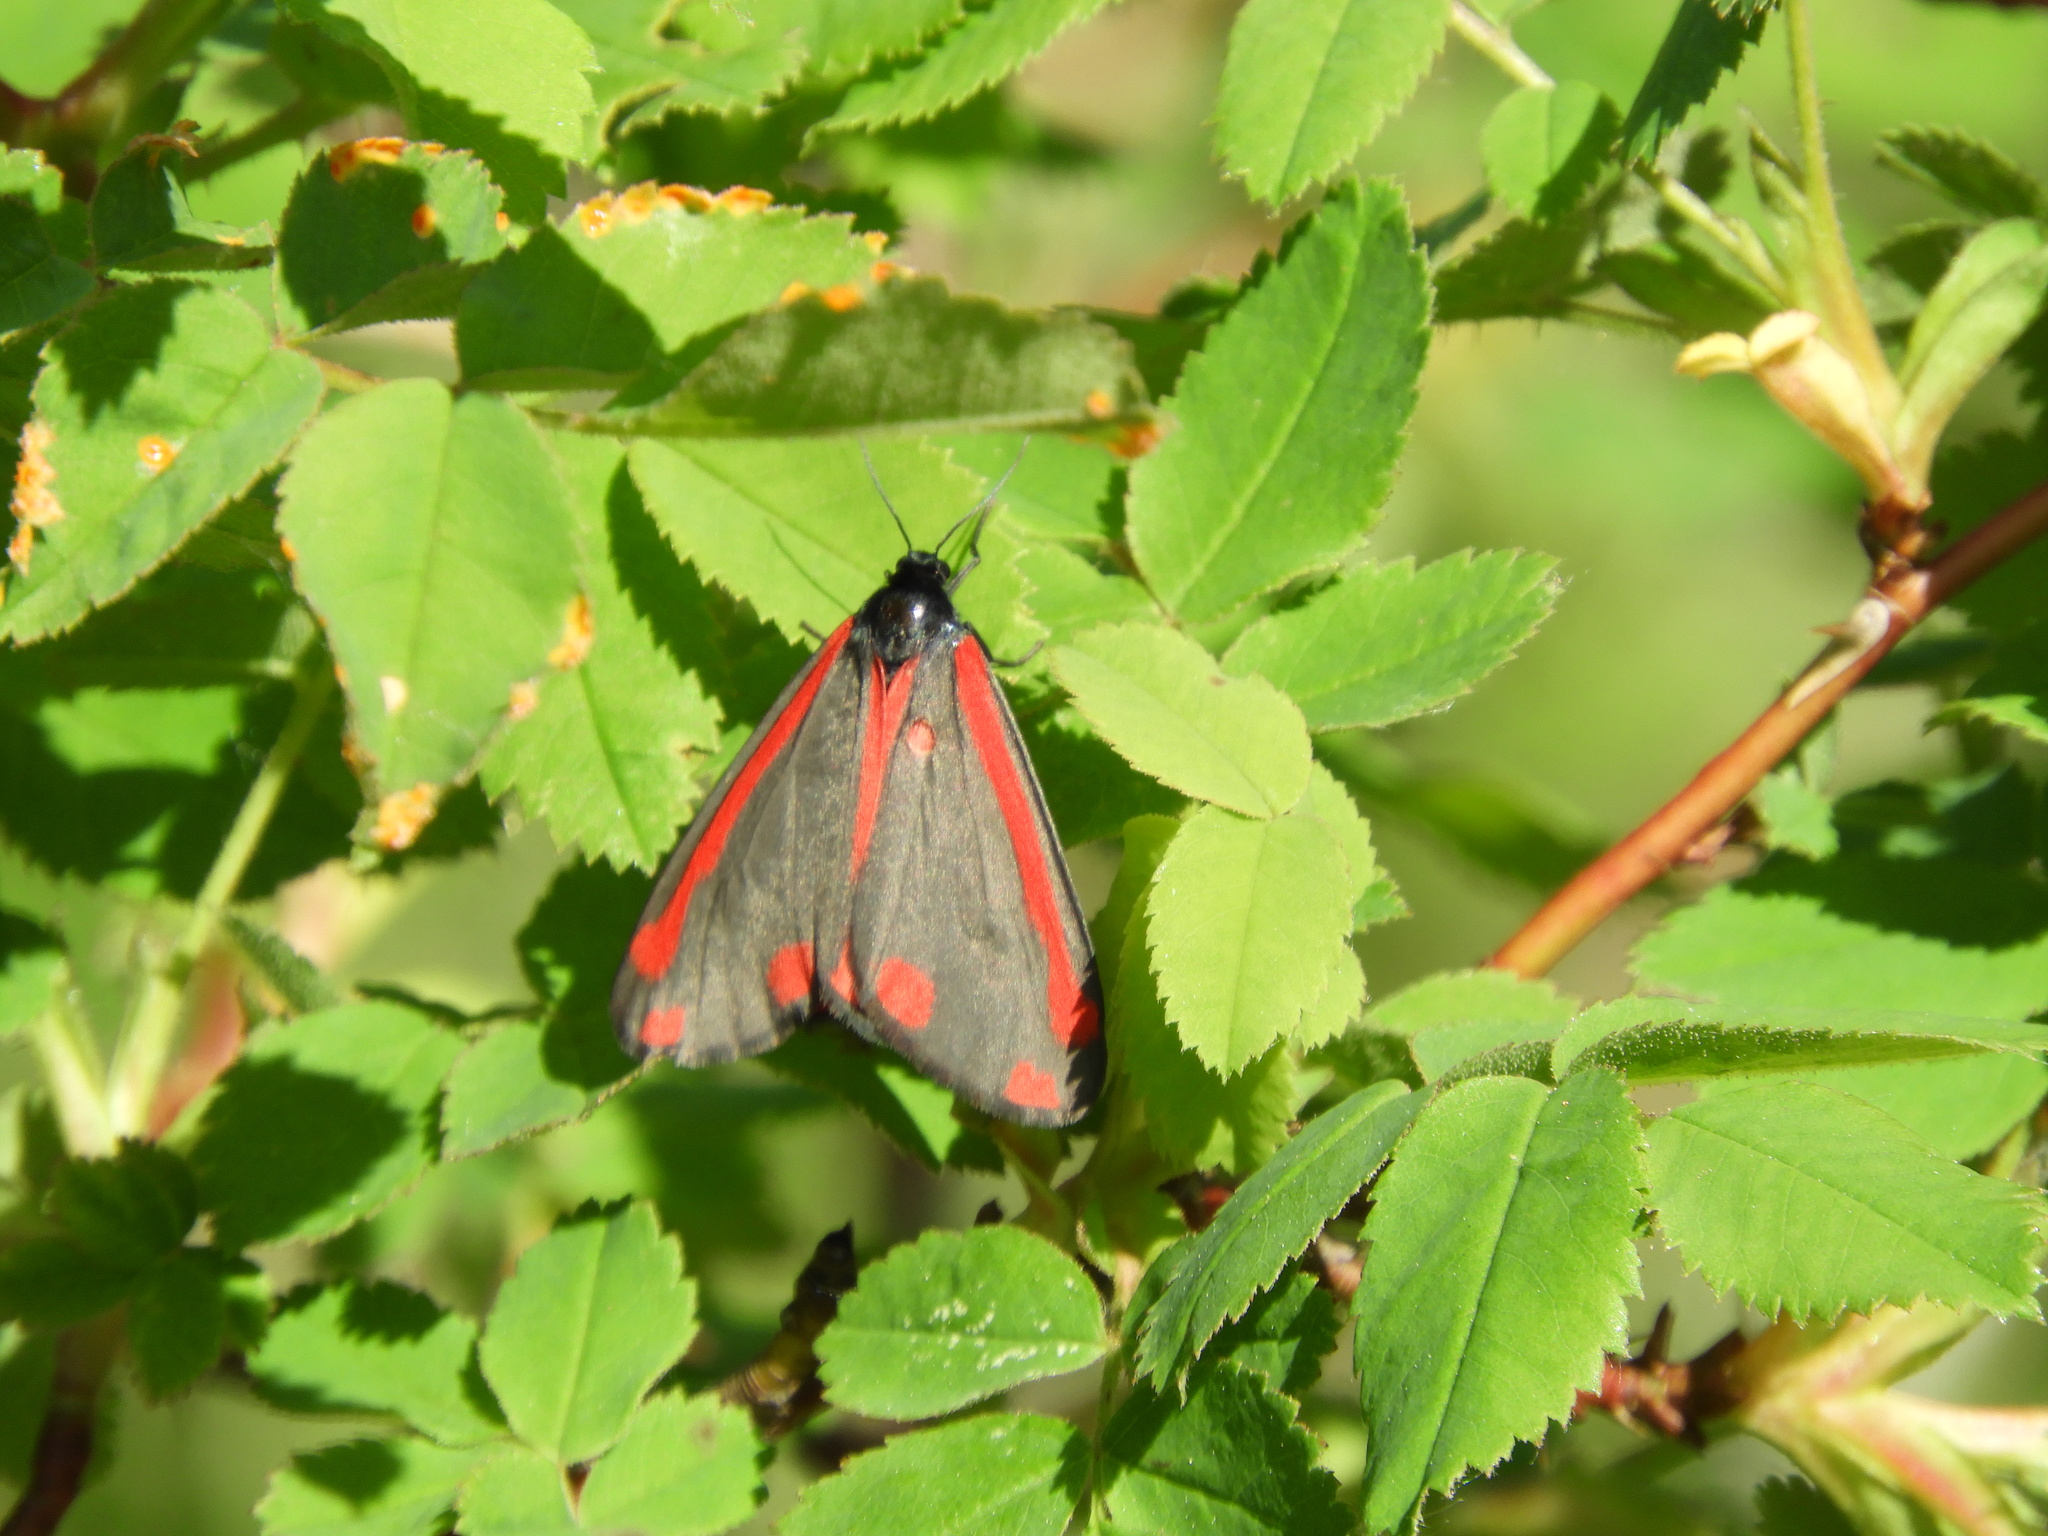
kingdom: Animalia
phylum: Arthropoda
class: Insecta
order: Lepidoptera
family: Erebidae
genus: Tyria
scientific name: Tyria jacobaeae
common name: Cinnabar
